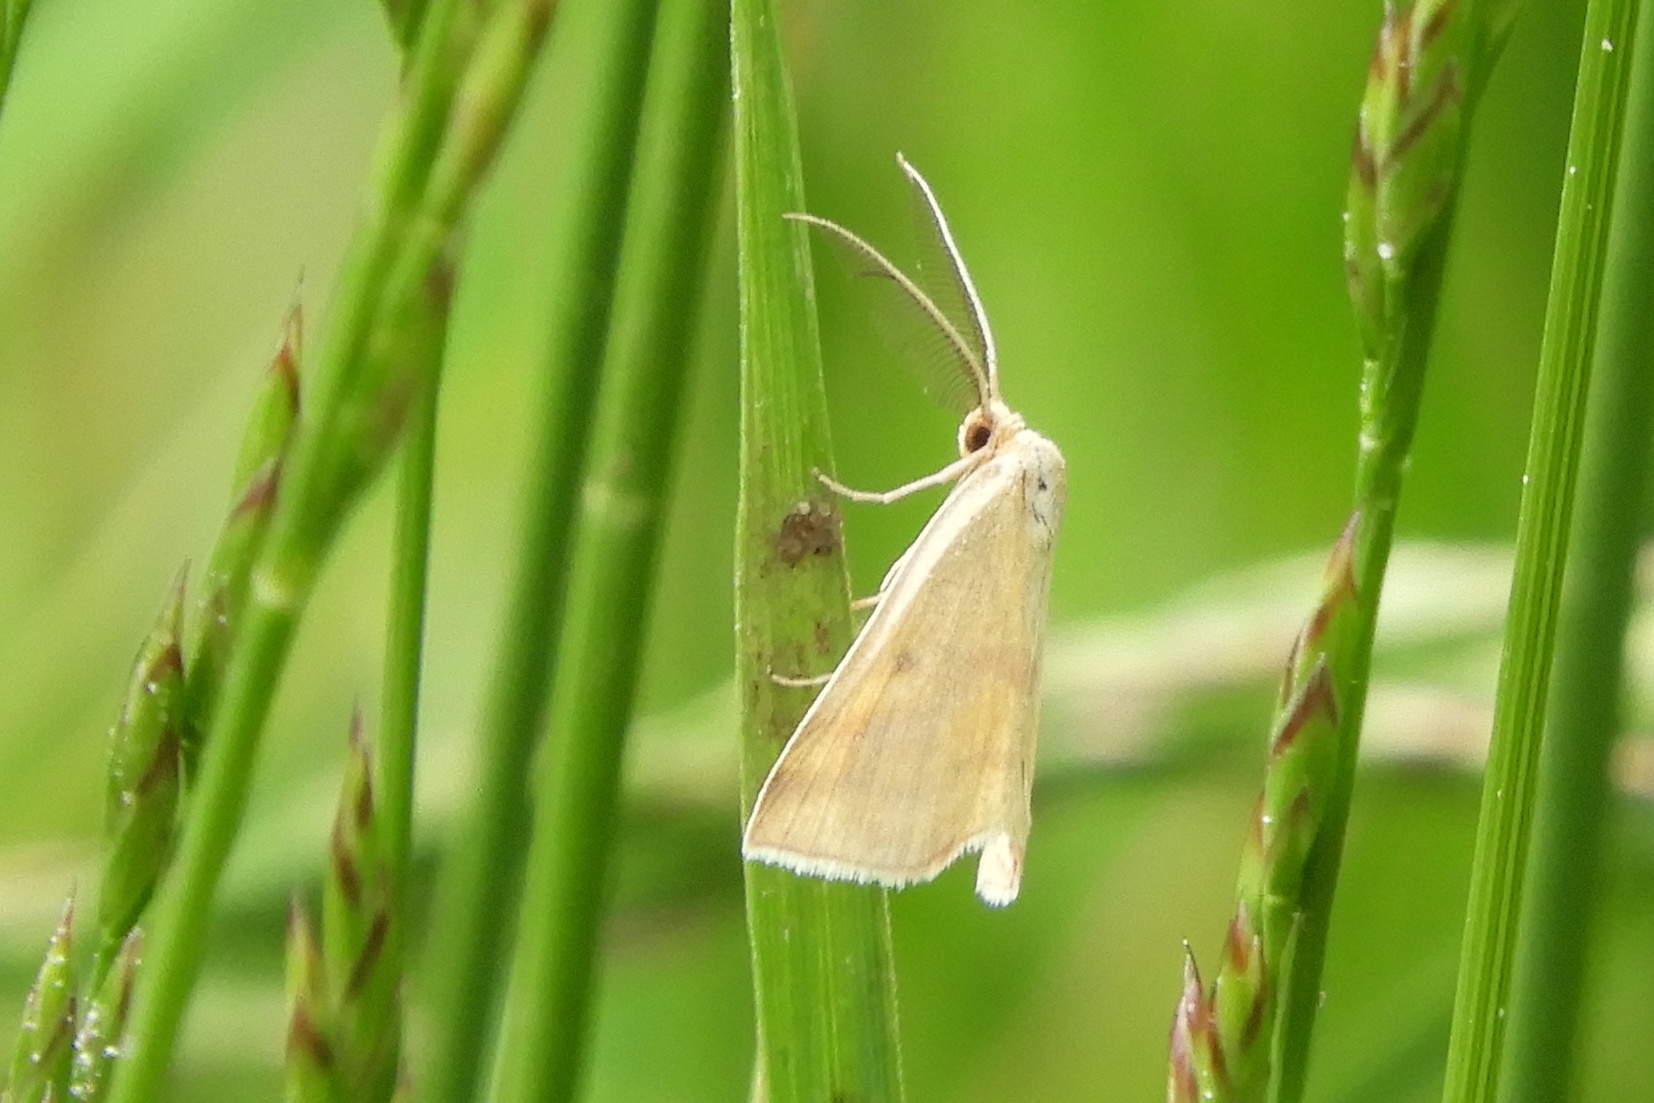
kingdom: Animalia
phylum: Arthropoda
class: Insecta
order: Lepidoptera
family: Geometridae
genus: Haematopis
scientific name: Haematopis grataria
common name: Chickweed geometer
